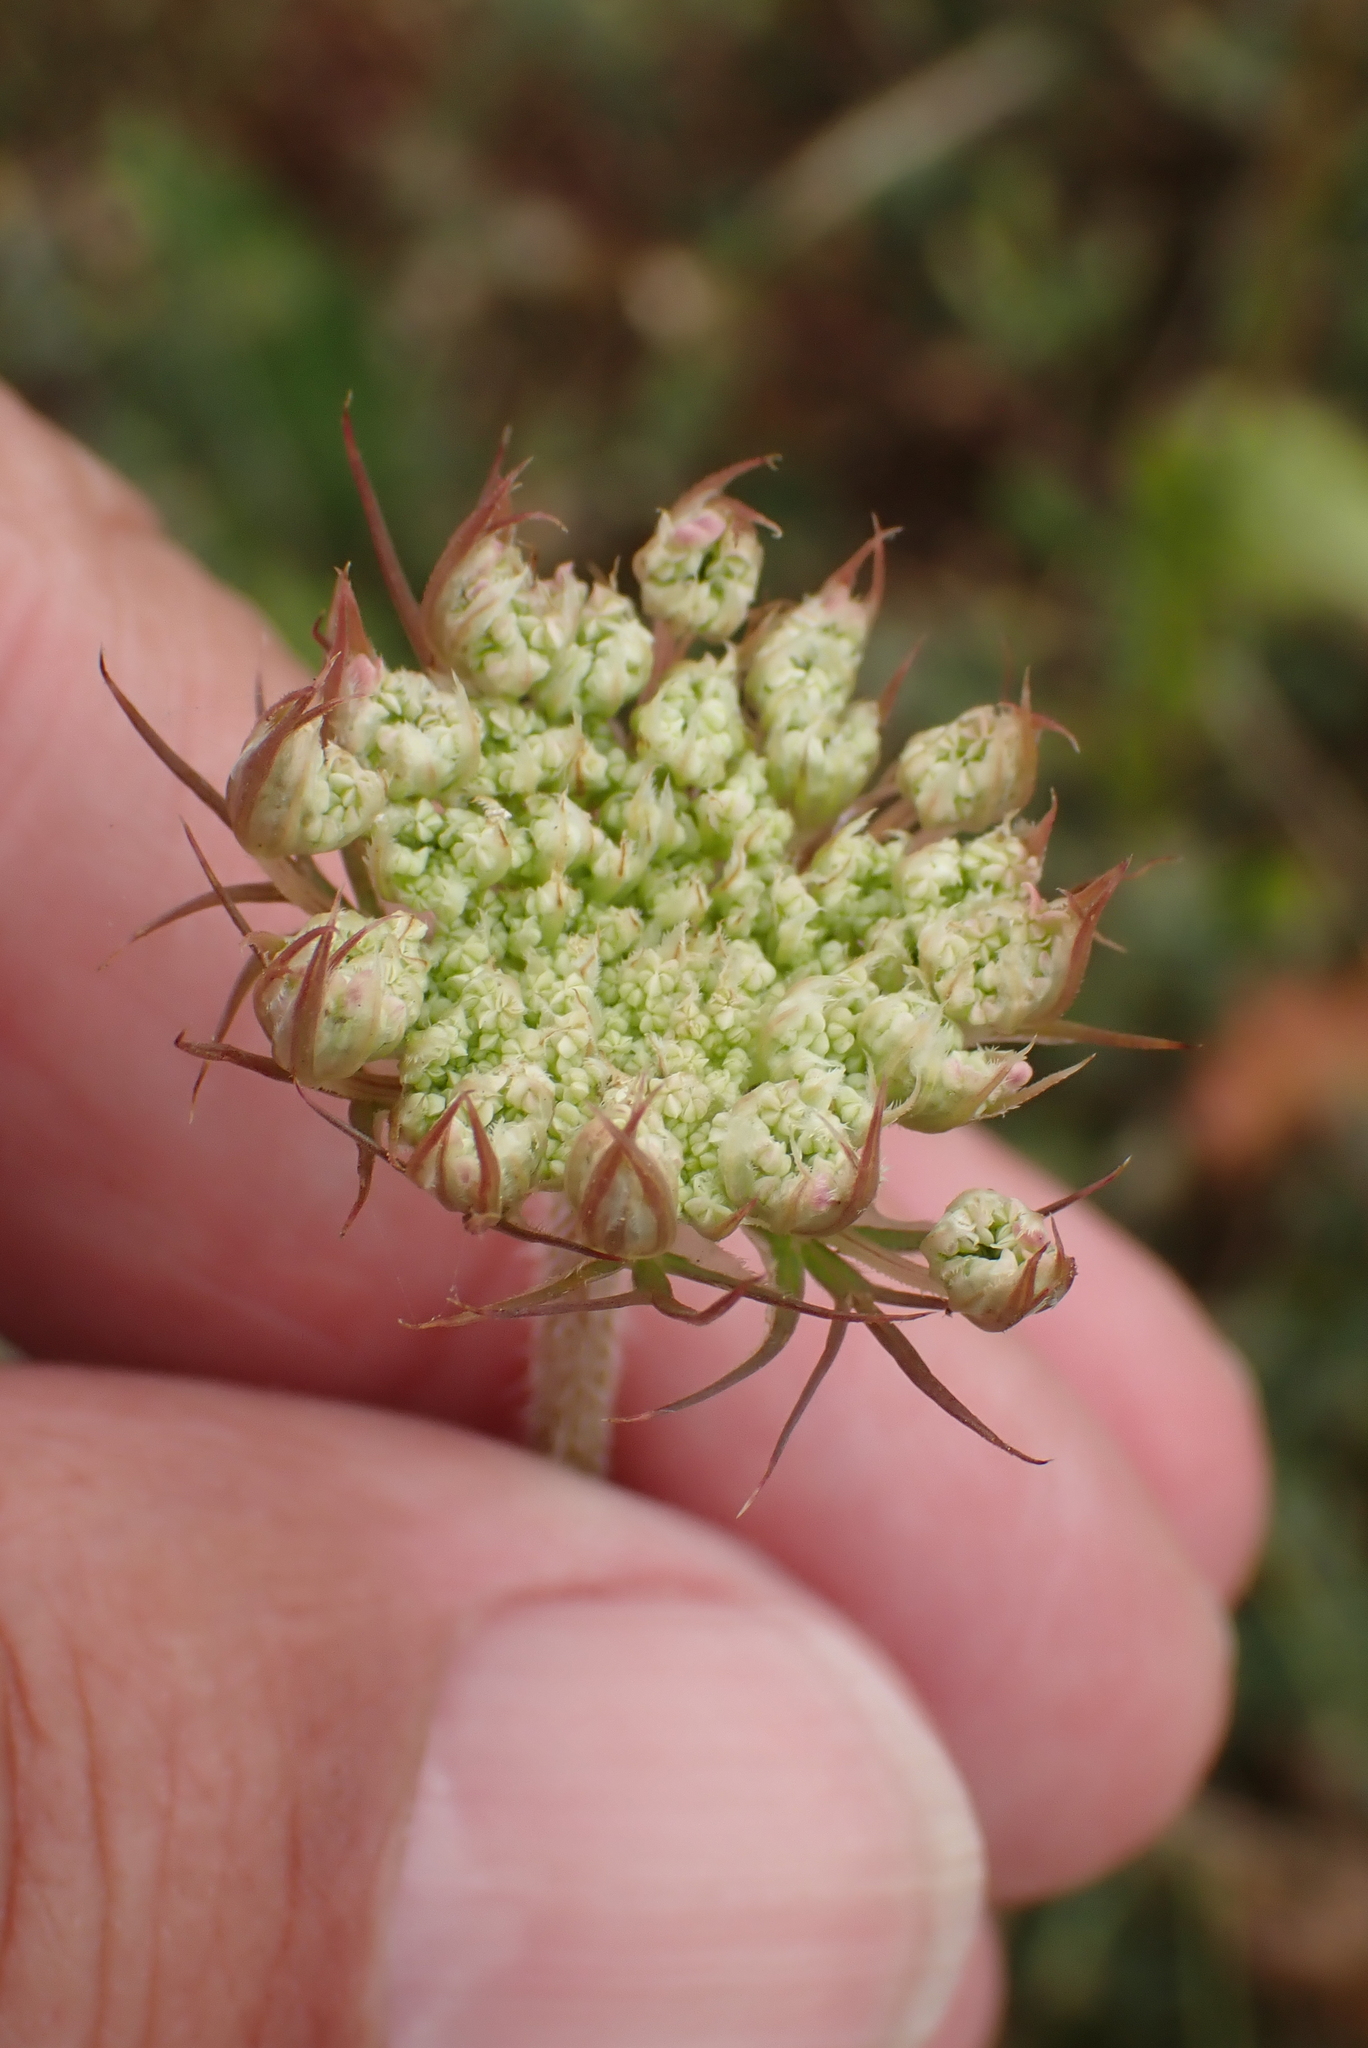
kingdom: Plantae
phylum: Tracheophyta
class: Magnoliopsida
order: Apiales
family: Apiaceae
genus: Daucus
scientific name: Daucus carota
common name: Wild carrot
